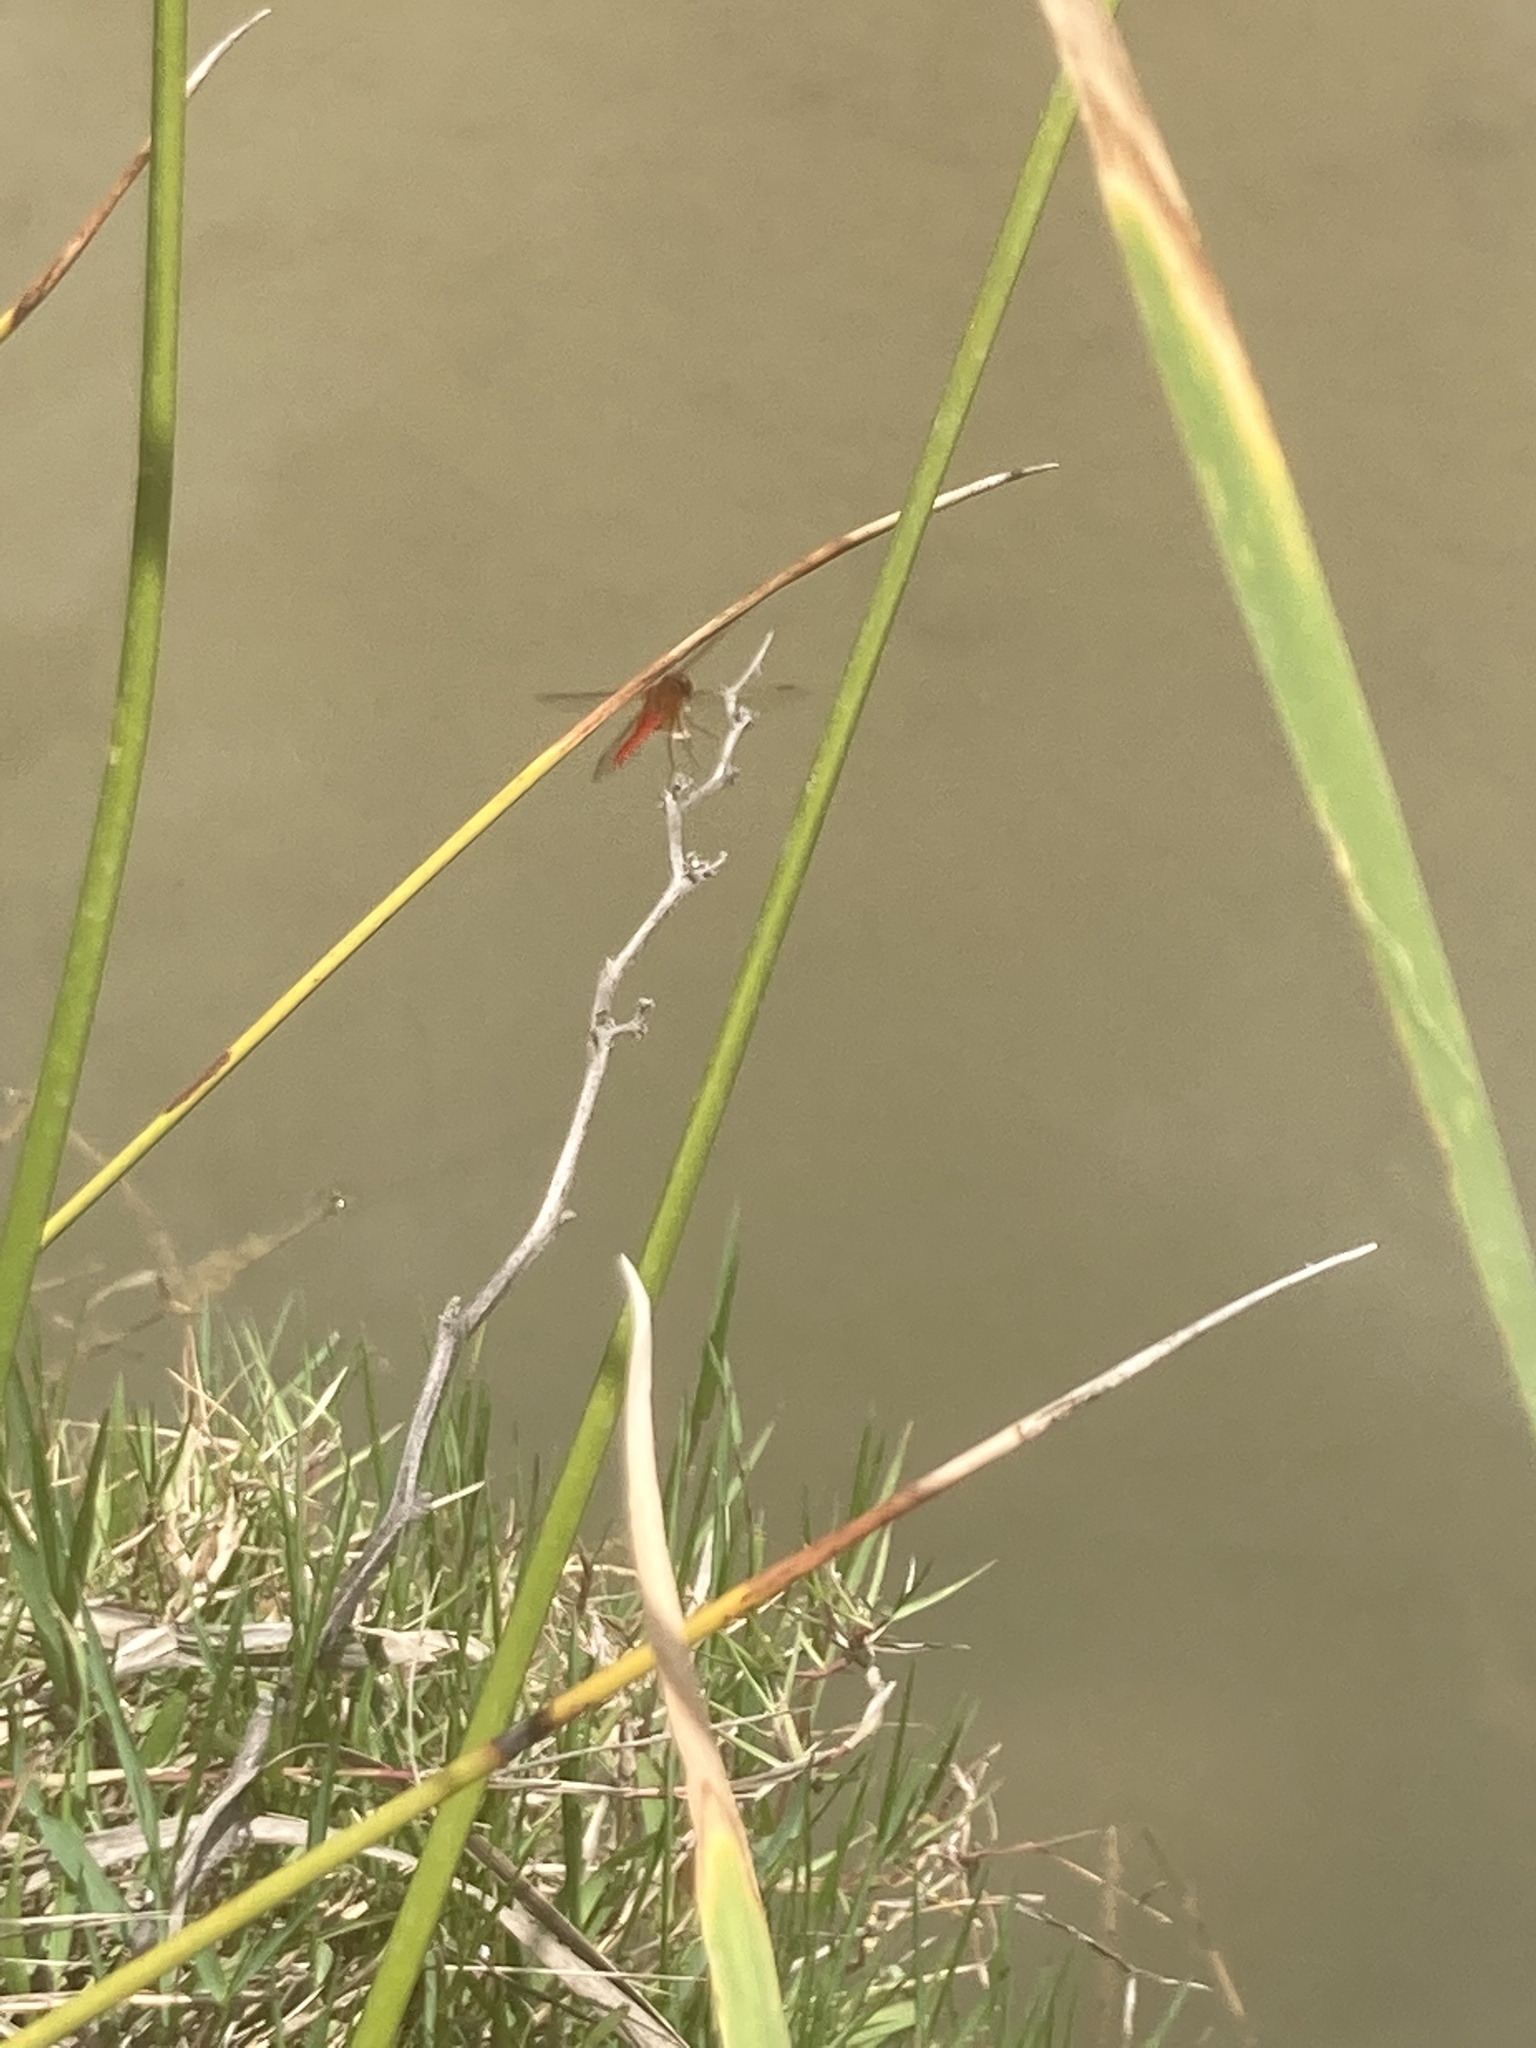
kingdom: Animalia
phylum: Arthropoda
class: Insecta
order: Odonata
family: Libellulidae
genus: Crocothemis
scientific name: Crocothemis erythraea
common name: Scarlet dragonfly
